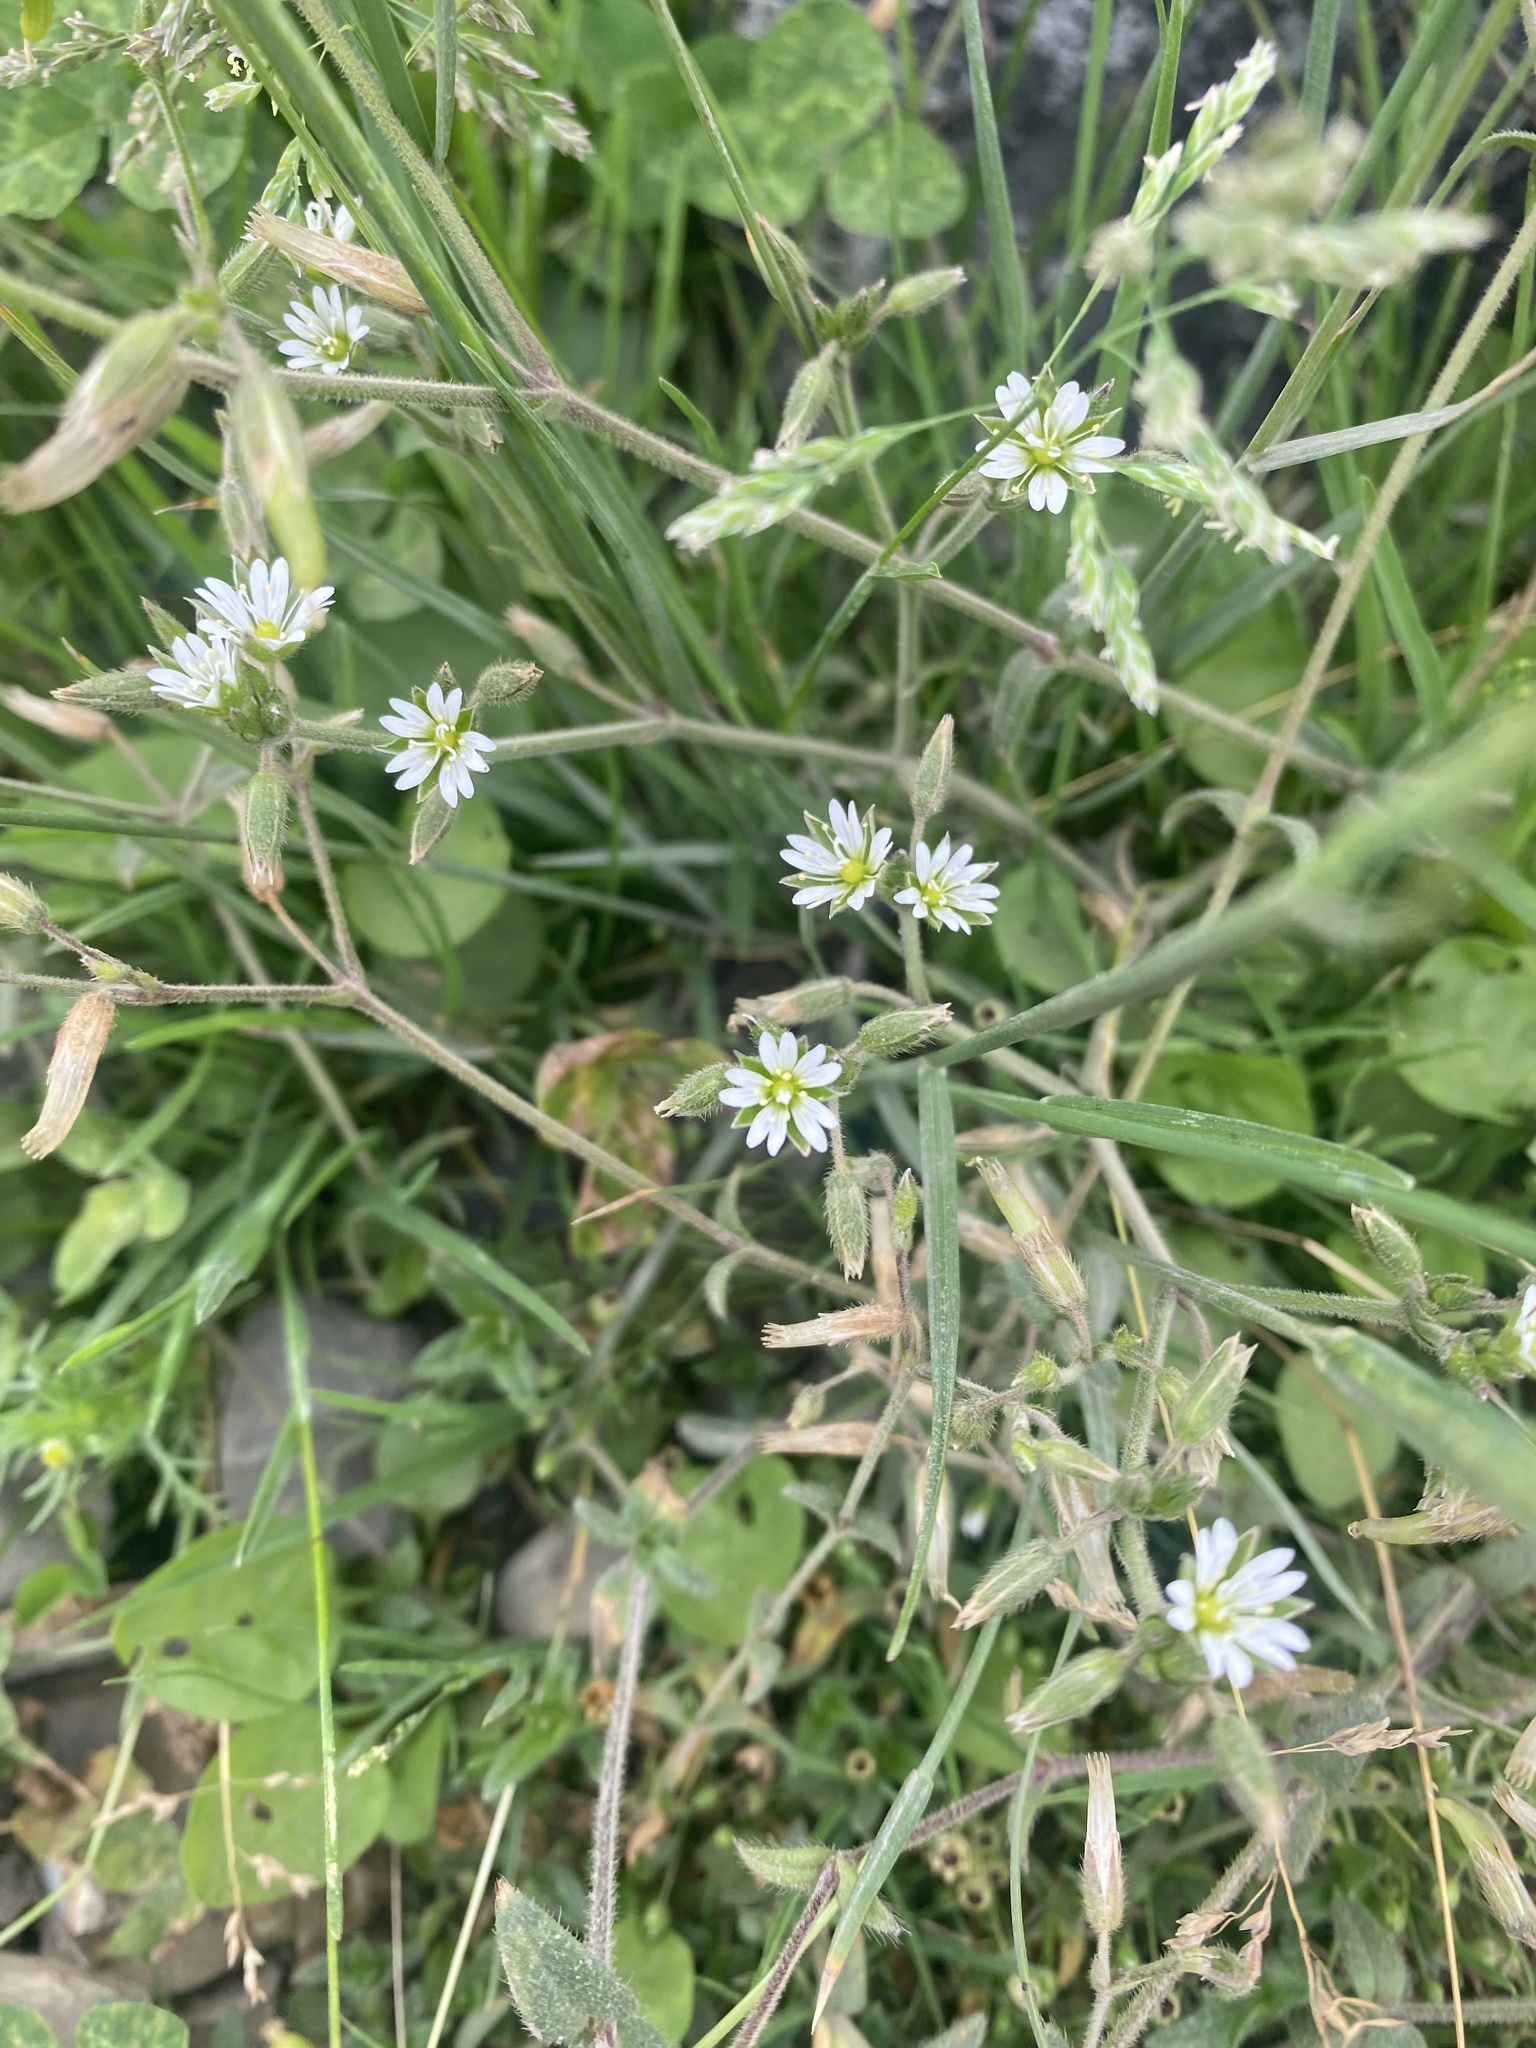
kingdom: Plantae
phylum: Tracheophyta
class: Magnoliopsida
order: Caryophyllales
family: Caryophyllaceae
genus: Cerastium
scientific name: Cerastium holosteoides
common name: Big chickweed
